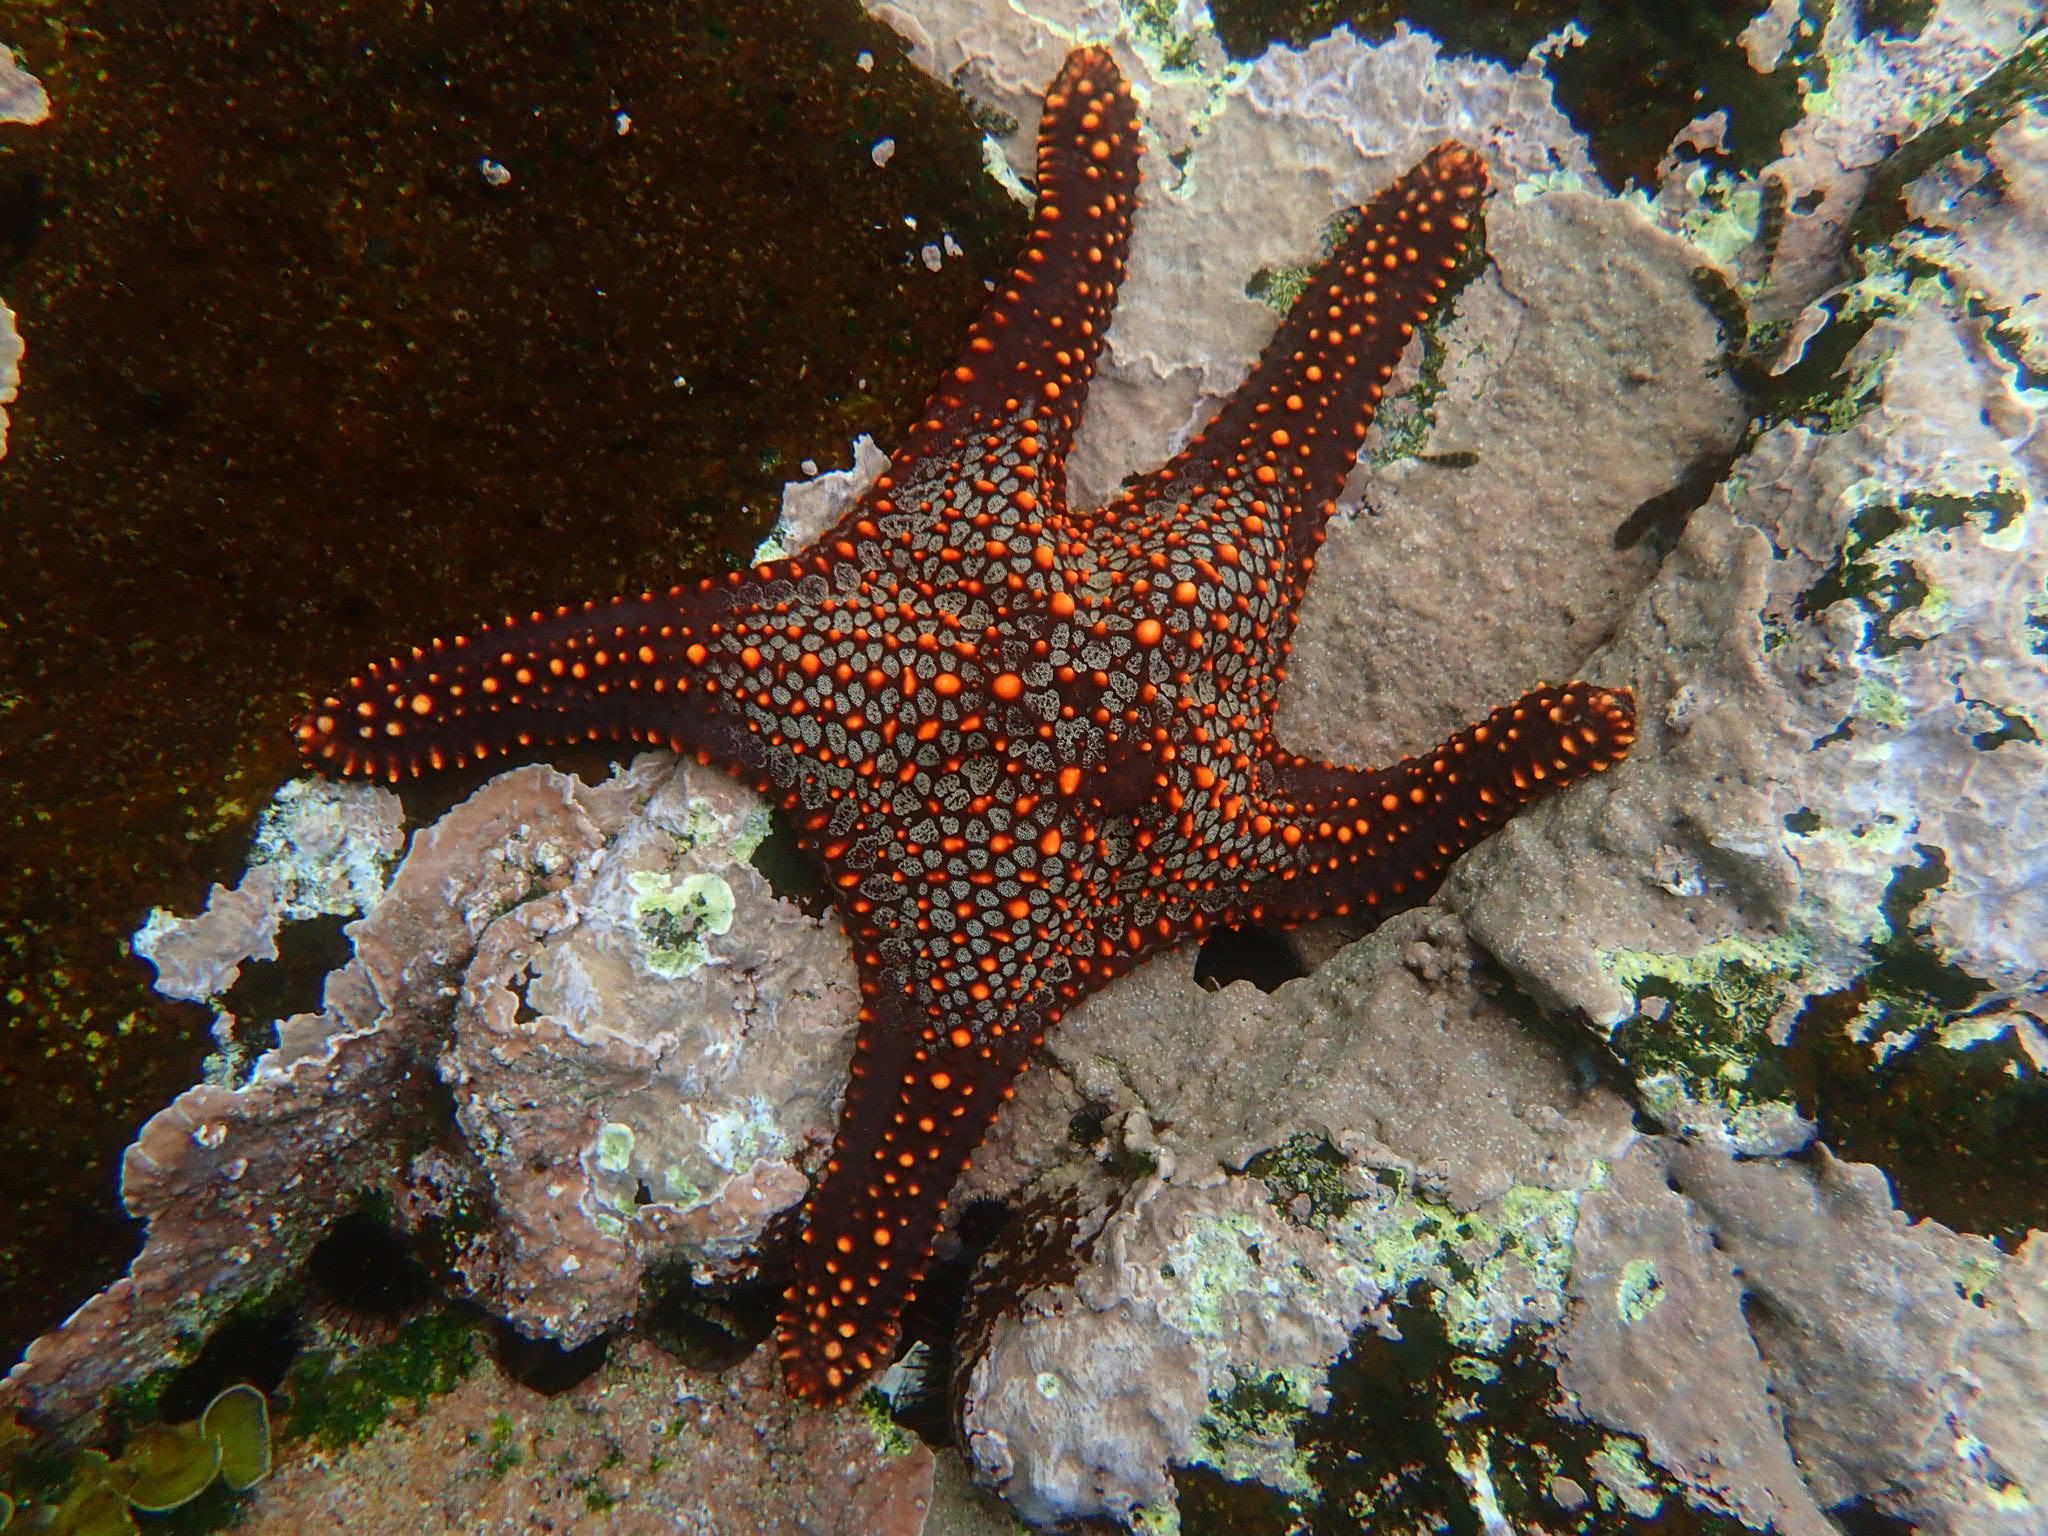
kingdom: Animalia
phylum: Echinodermata
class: Asteroidea
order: Valvatida
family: Oreasteridae
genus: Pentaceraster
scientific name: Pentaceraster cumingi
